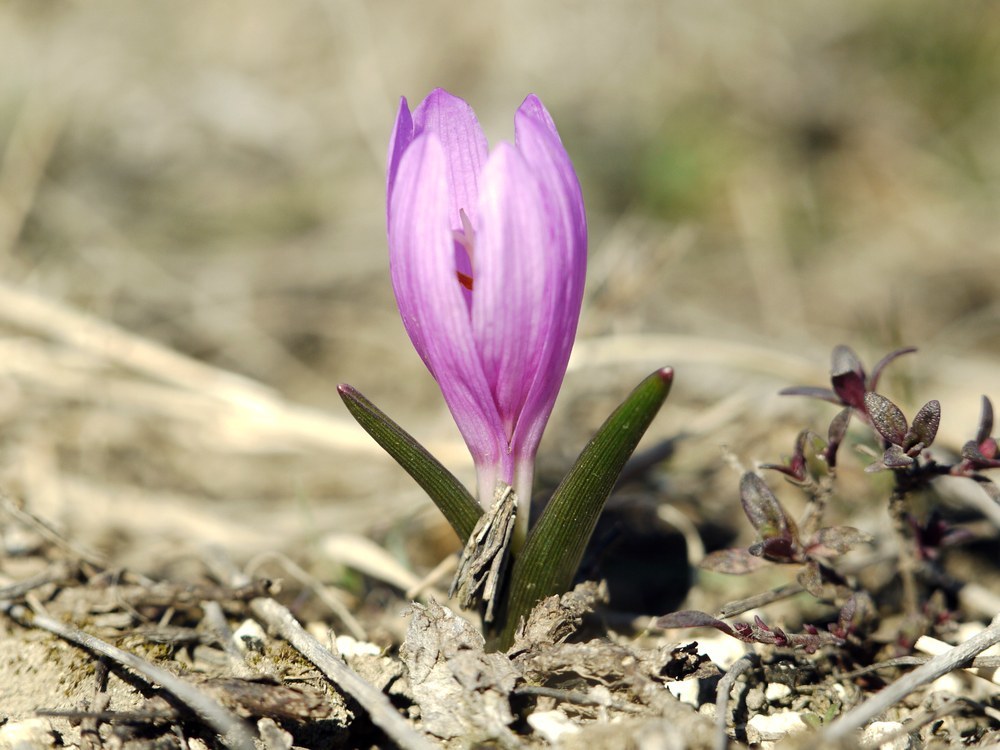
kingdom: Plantae
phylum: Tracheophyta
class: Liliopsida
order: Liliales
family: Colchicaceae
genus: Colchicum
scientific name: Colchicum bulbocodium
